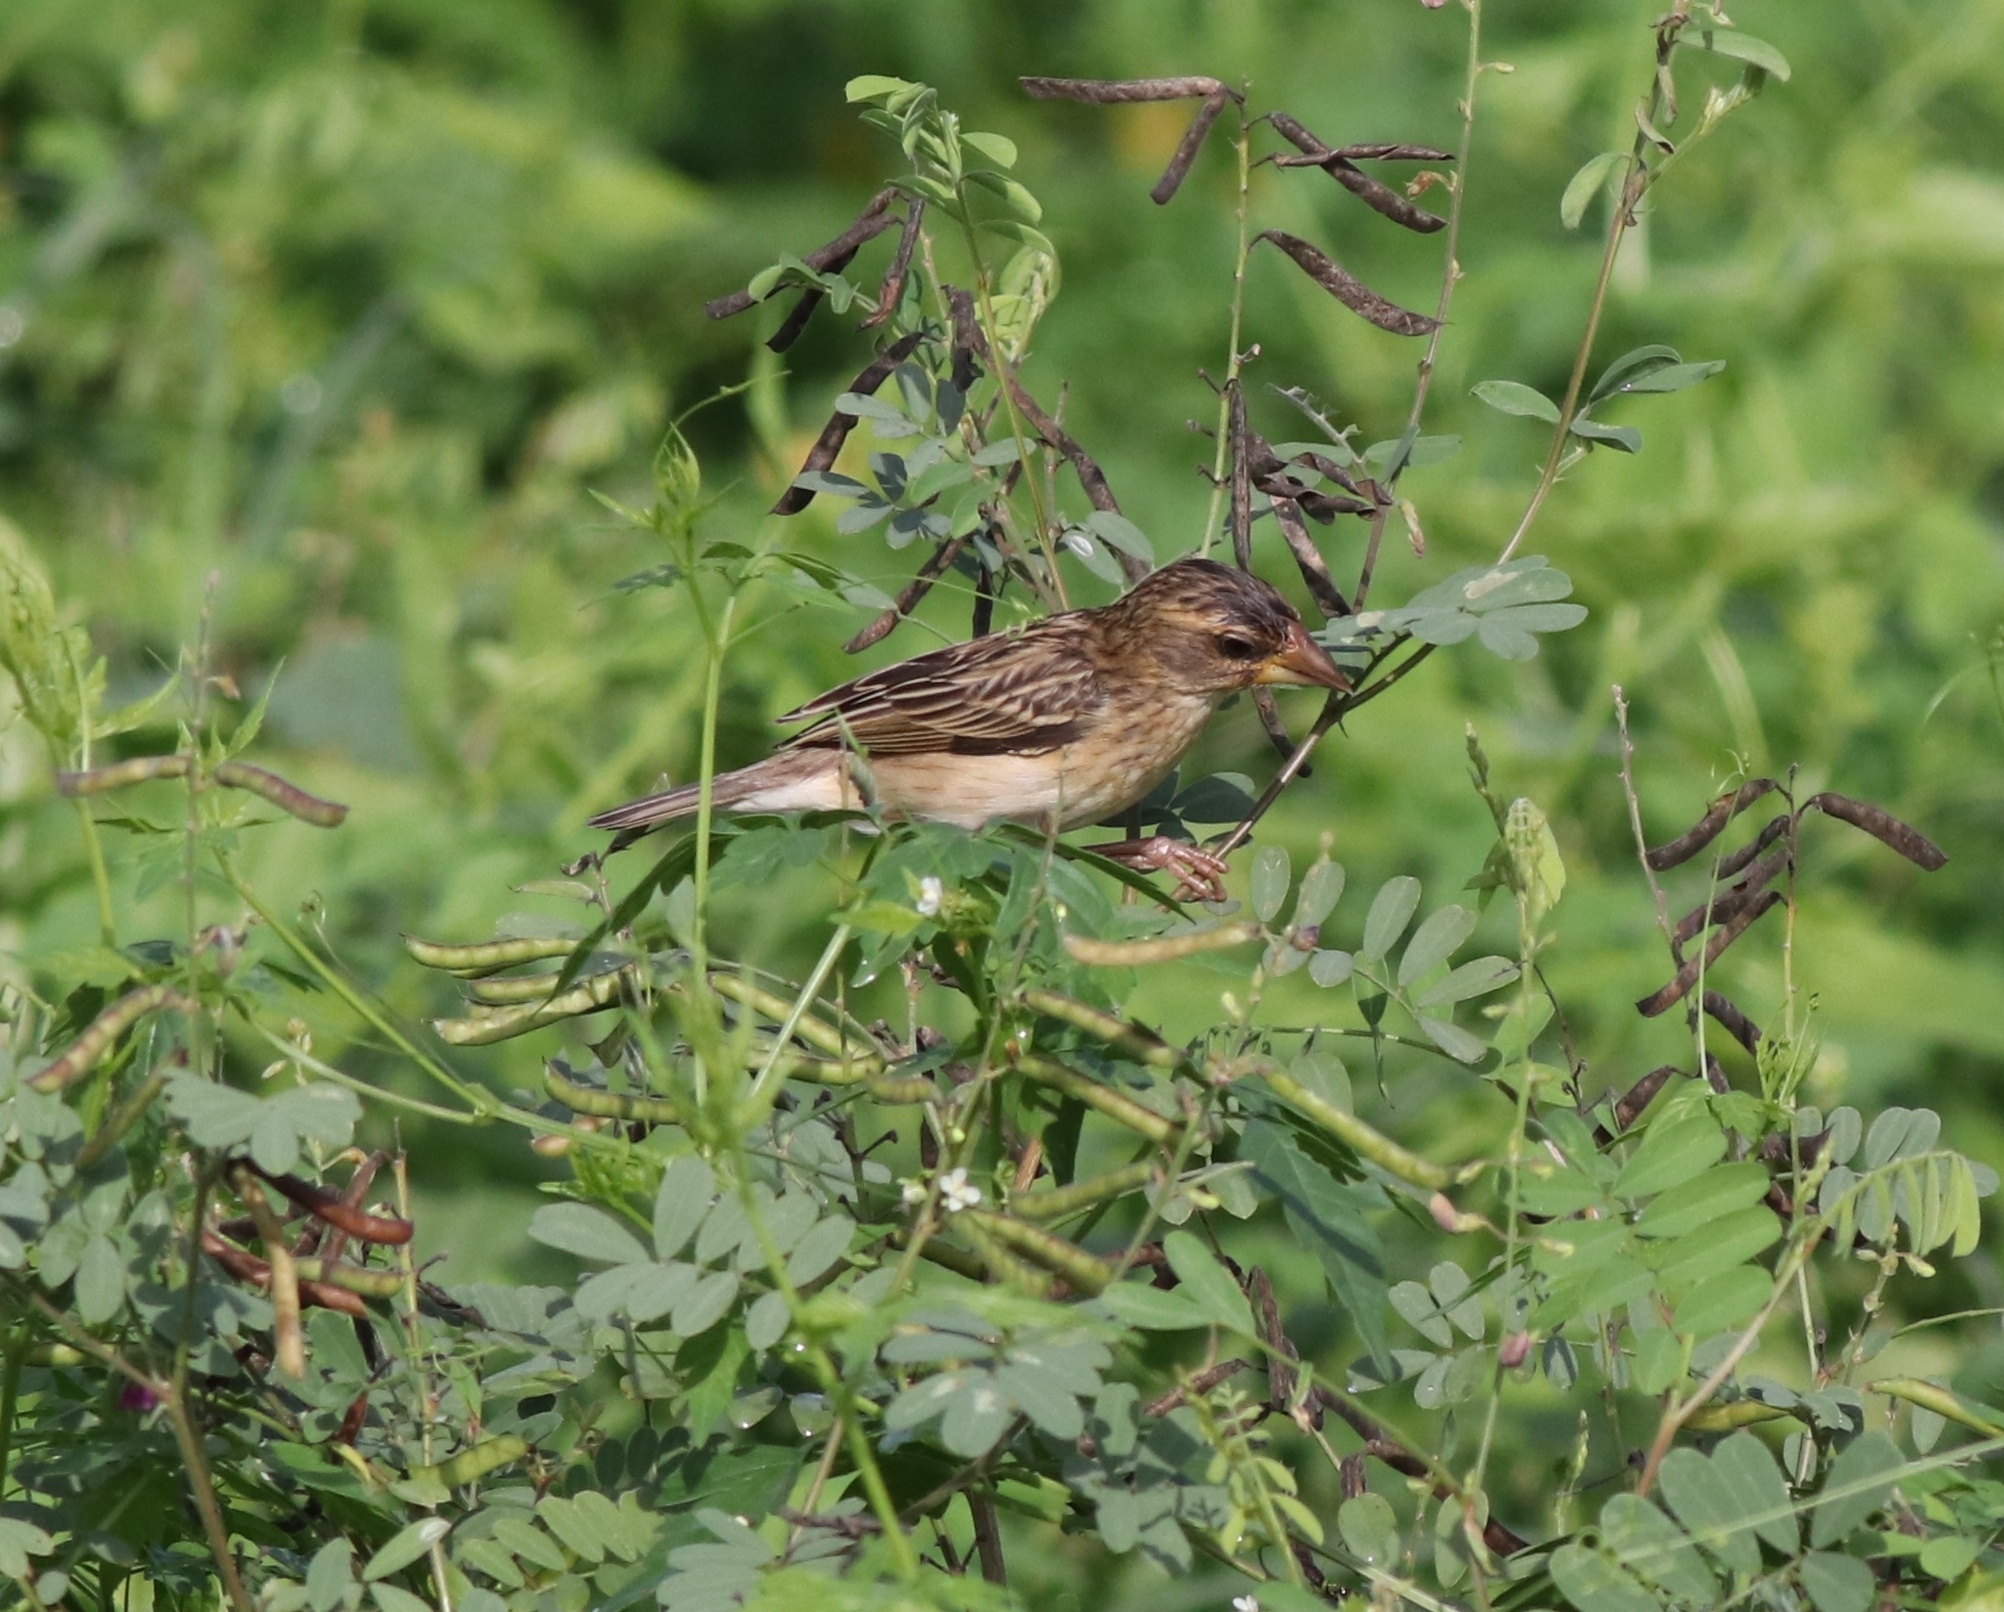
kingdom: Animalia
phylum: Chordata
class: Aves
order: Passeriformes
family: Ploceidae
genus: Ploceus
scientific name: Ploceus philippinus
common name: Baya weaver
